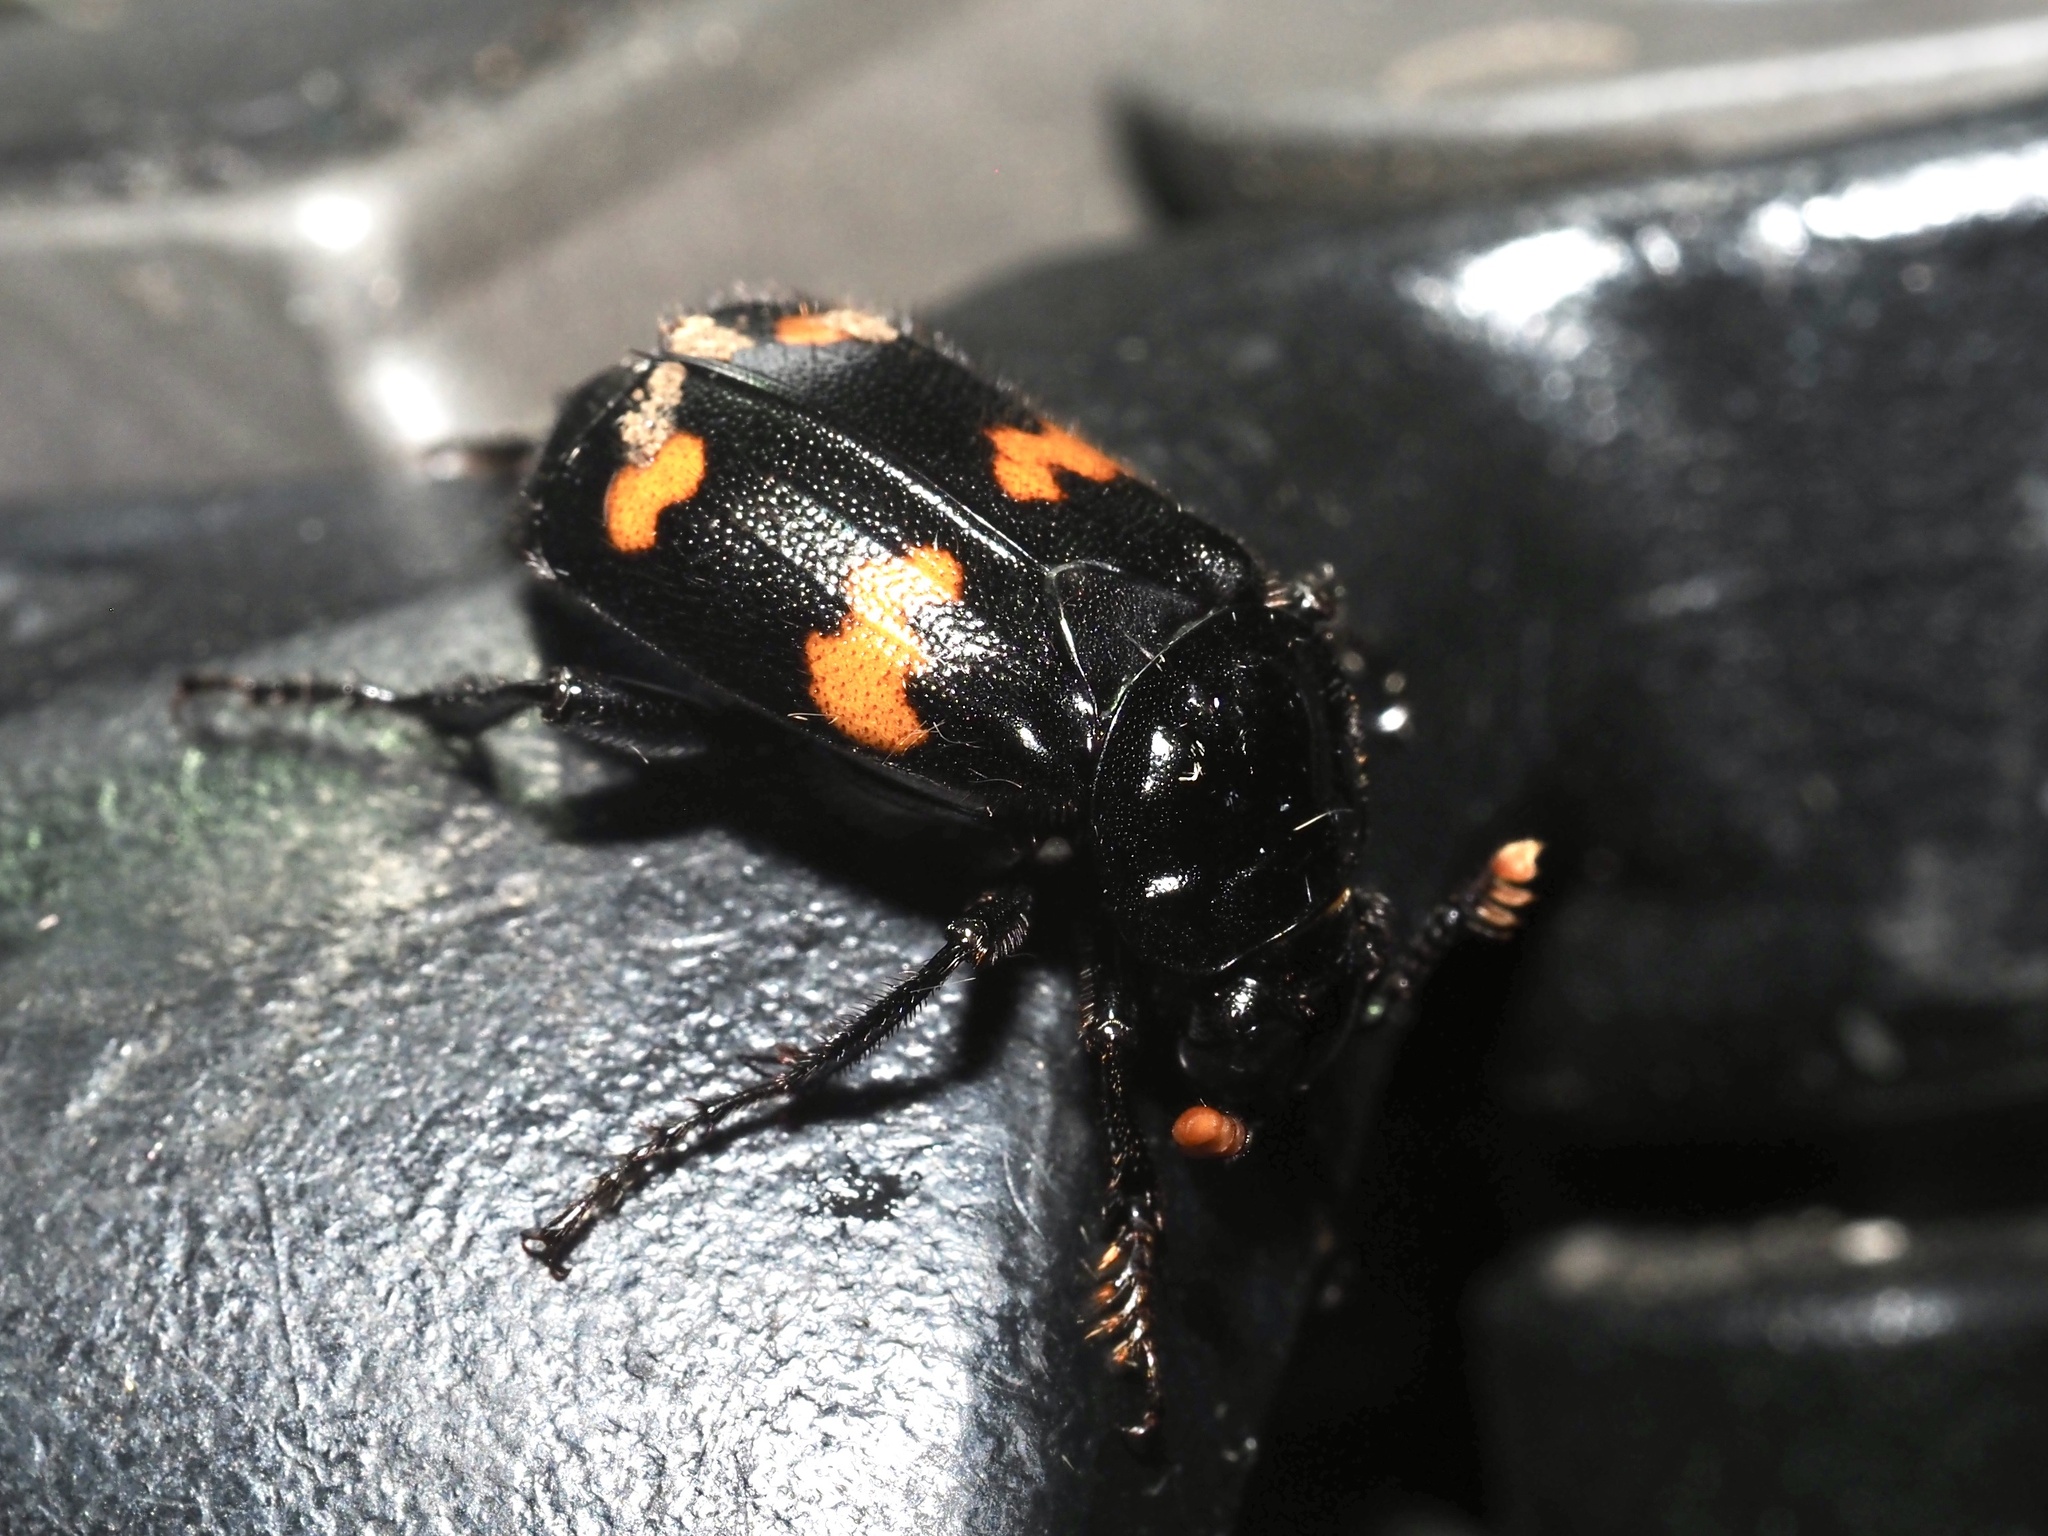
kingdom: Animalia
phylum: Arthropoda
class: Insecta
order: Coleoptera
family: Staphylinidae
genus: Nicrophorus
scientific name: Nicrophorus orbicollis
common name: Roundneck sexton beetle
